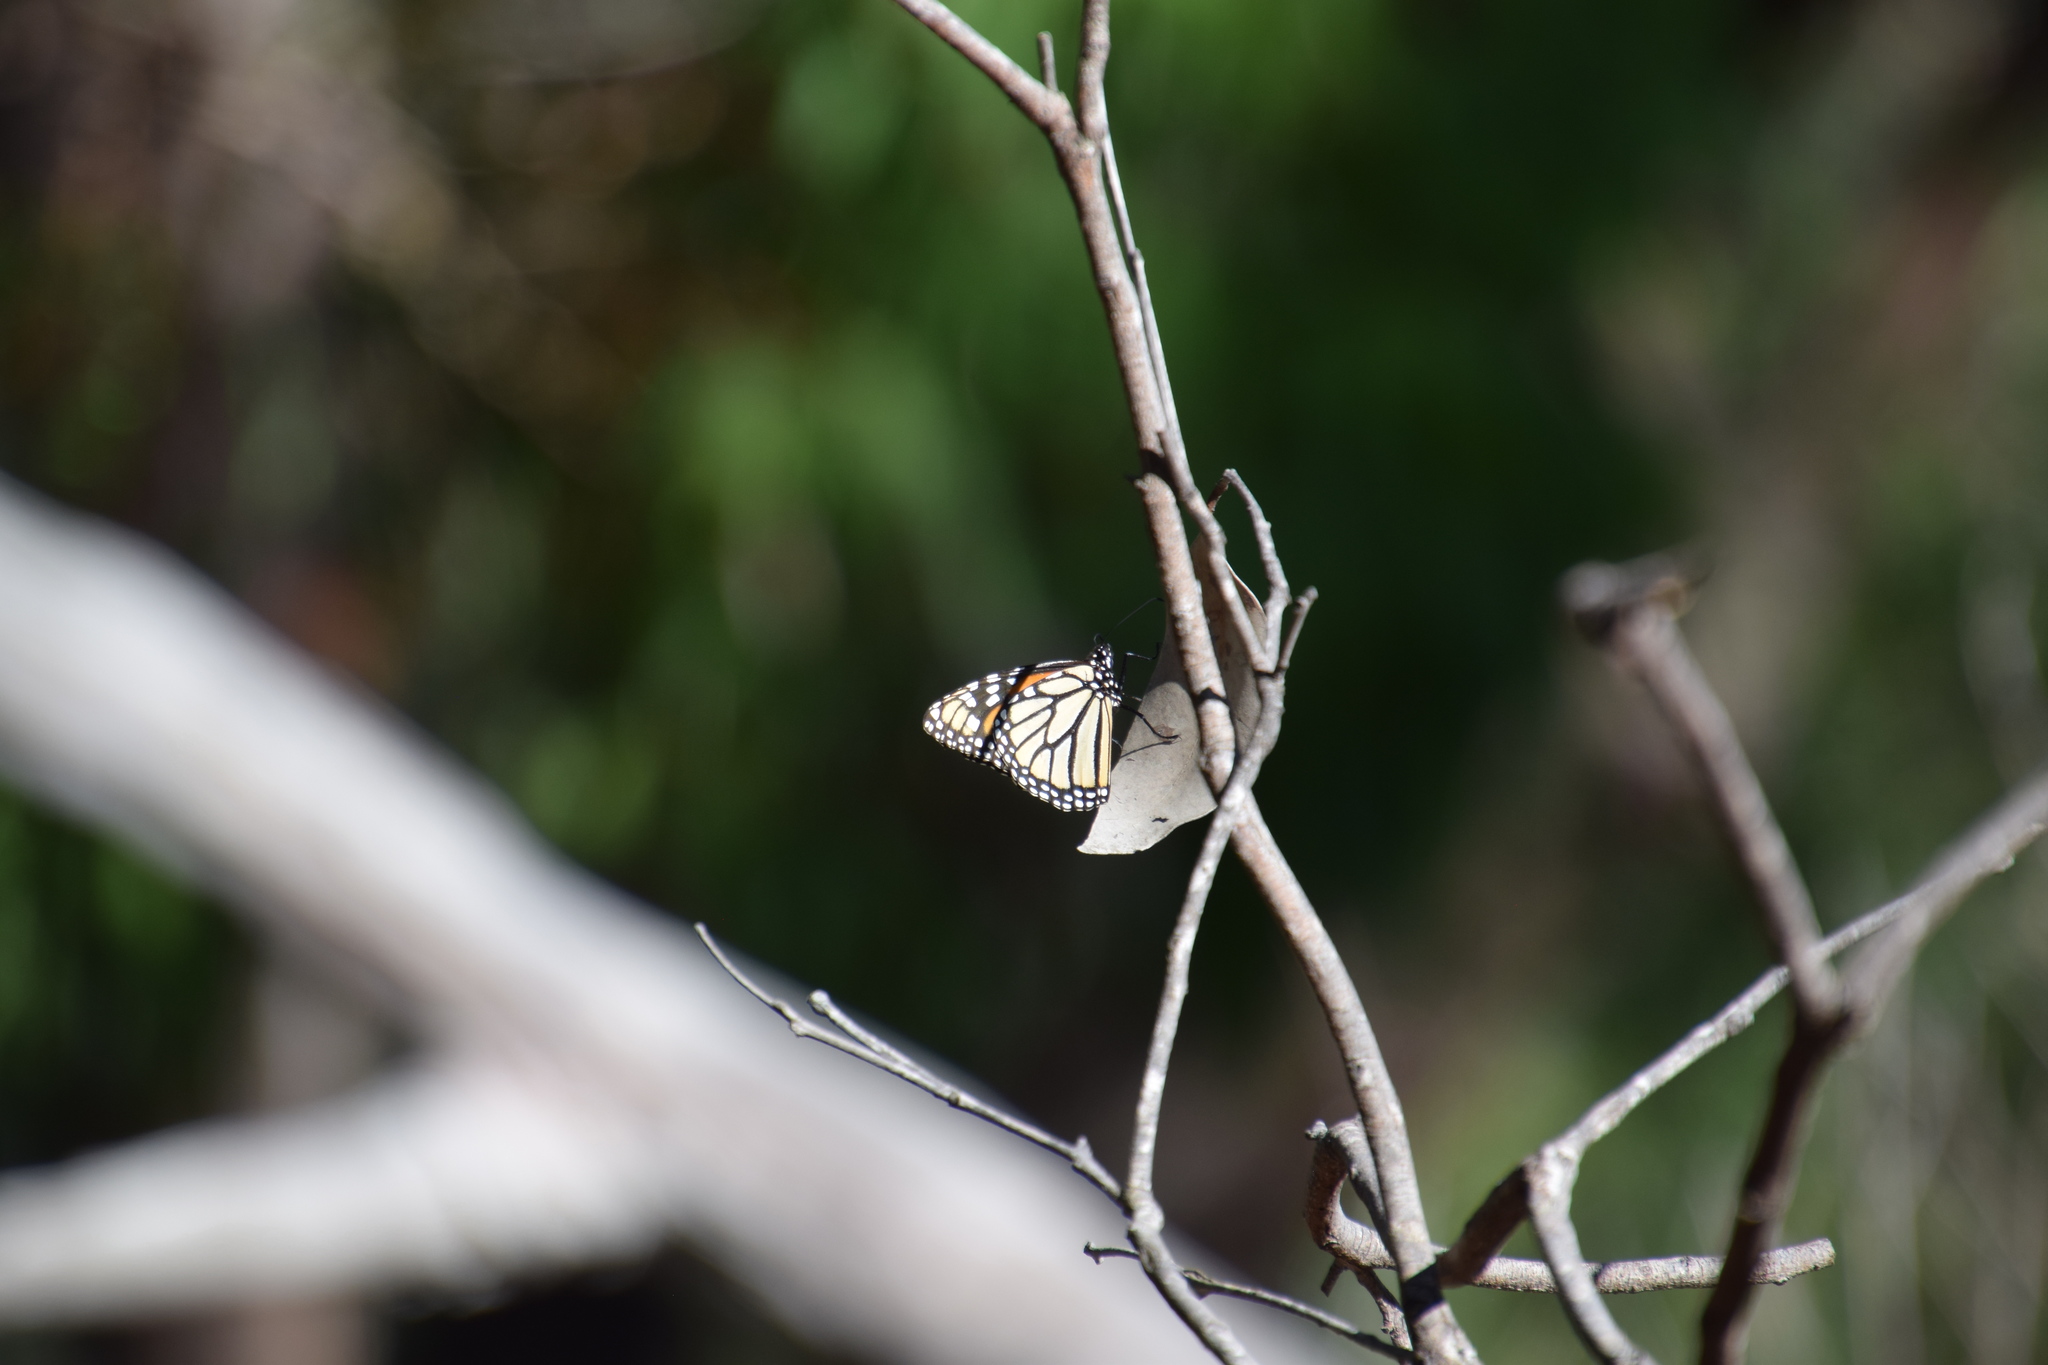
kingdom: Animalia
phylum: Arthropoda
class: Insecta
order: Lepidoptera
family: Nymphalidae
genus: Danaus
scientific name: Danaus plexippus
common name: Monarch
